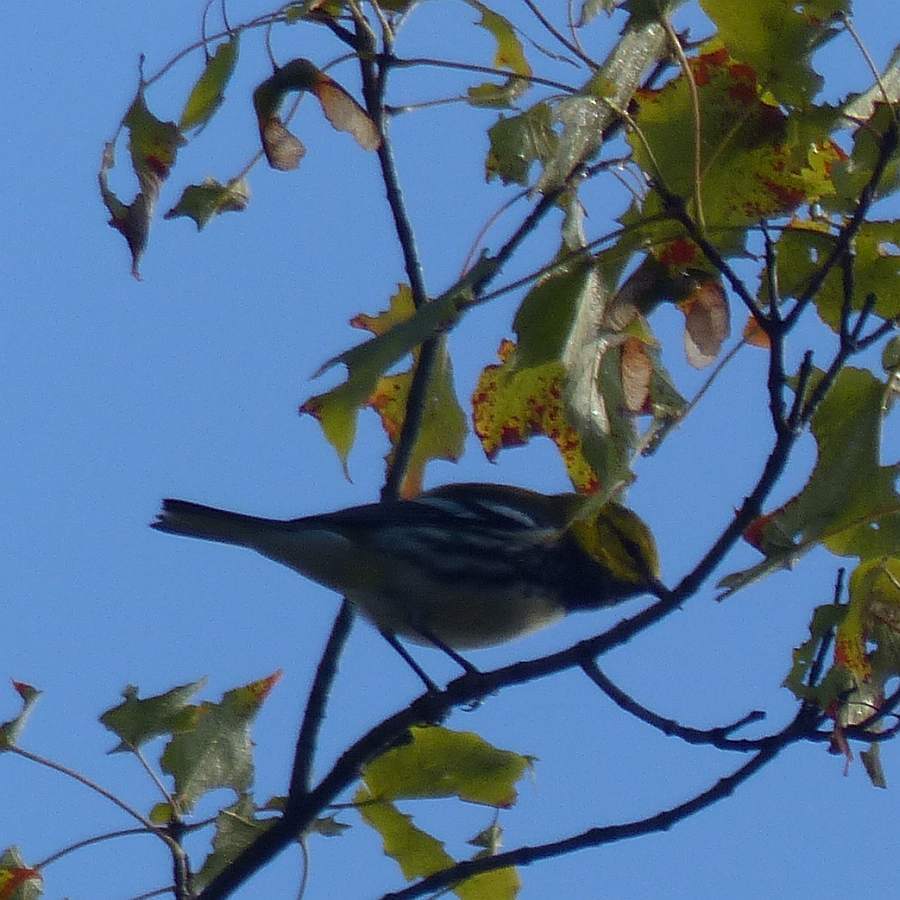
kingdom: Animalia
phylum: Chordata
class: Aves
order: Passeriformes
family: Parulidae
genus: Setophaga
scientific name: Setophaga virens
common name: Black-throated green warbler
